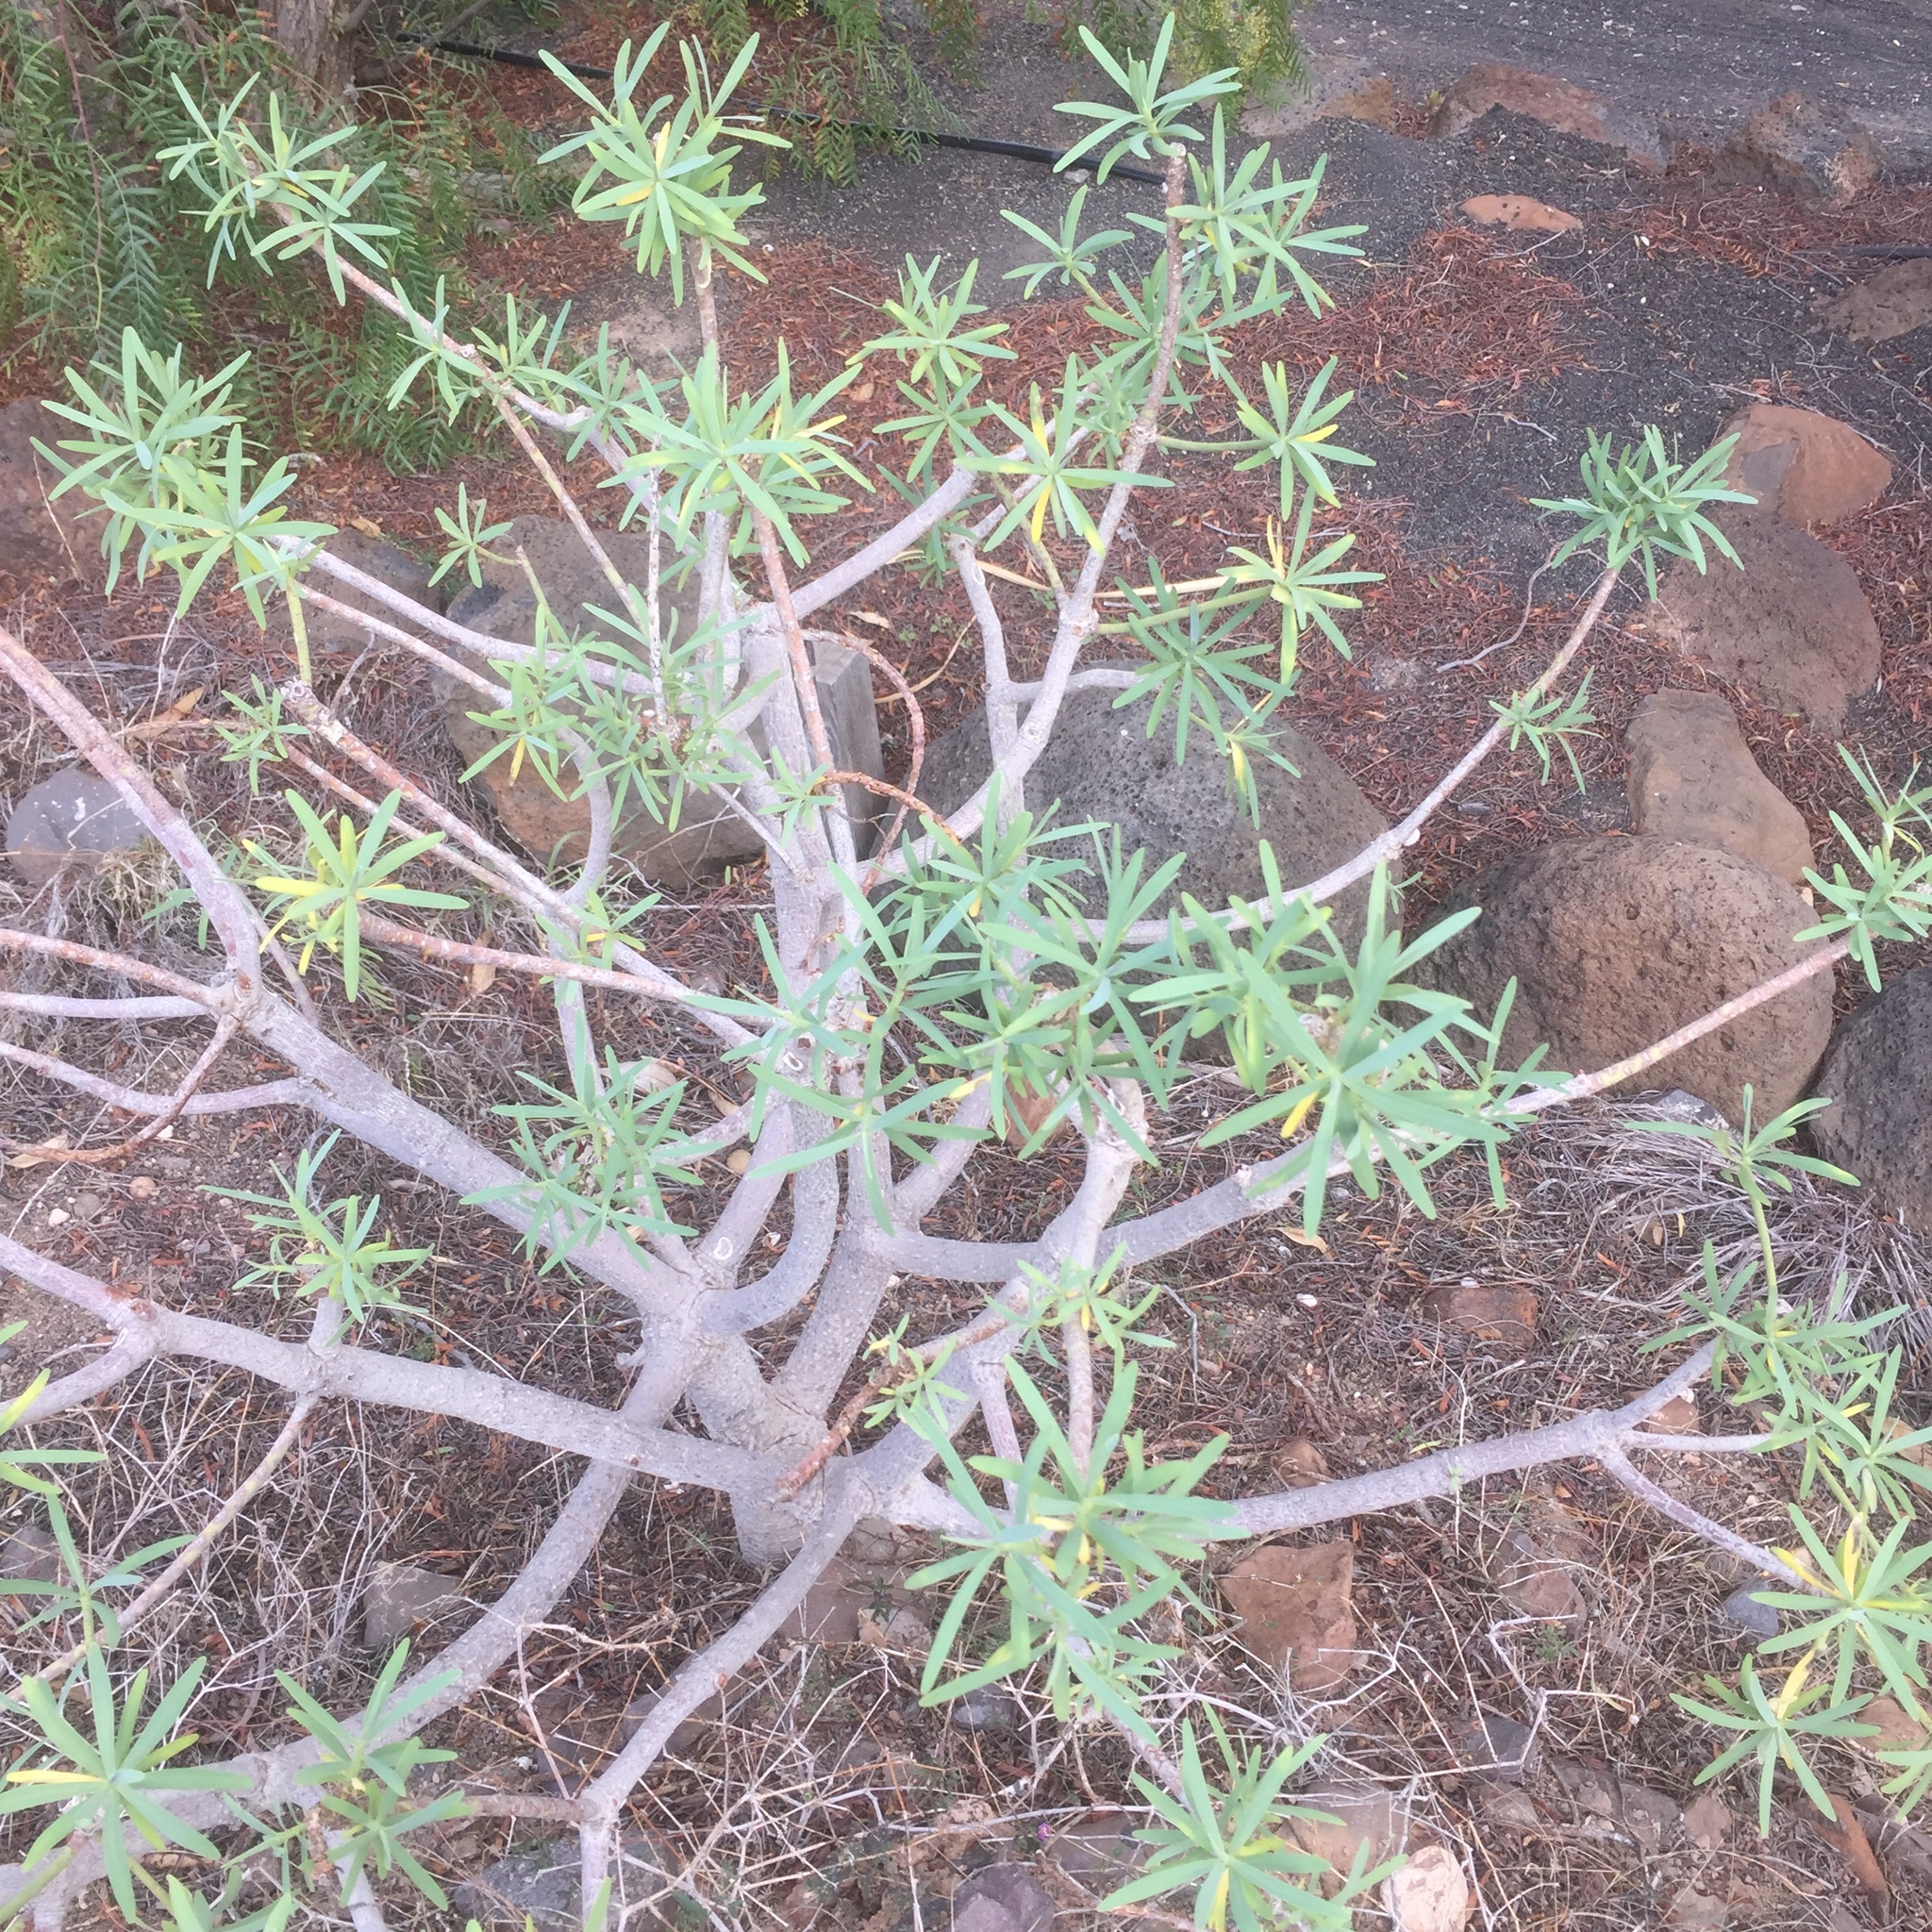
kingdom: Plantae
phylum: Tracheophyta
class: Magnoliopsida
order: Malpighiales
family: Euphorbiaceae
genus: Euphorbia
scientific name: Euphorbia regis-jubae
